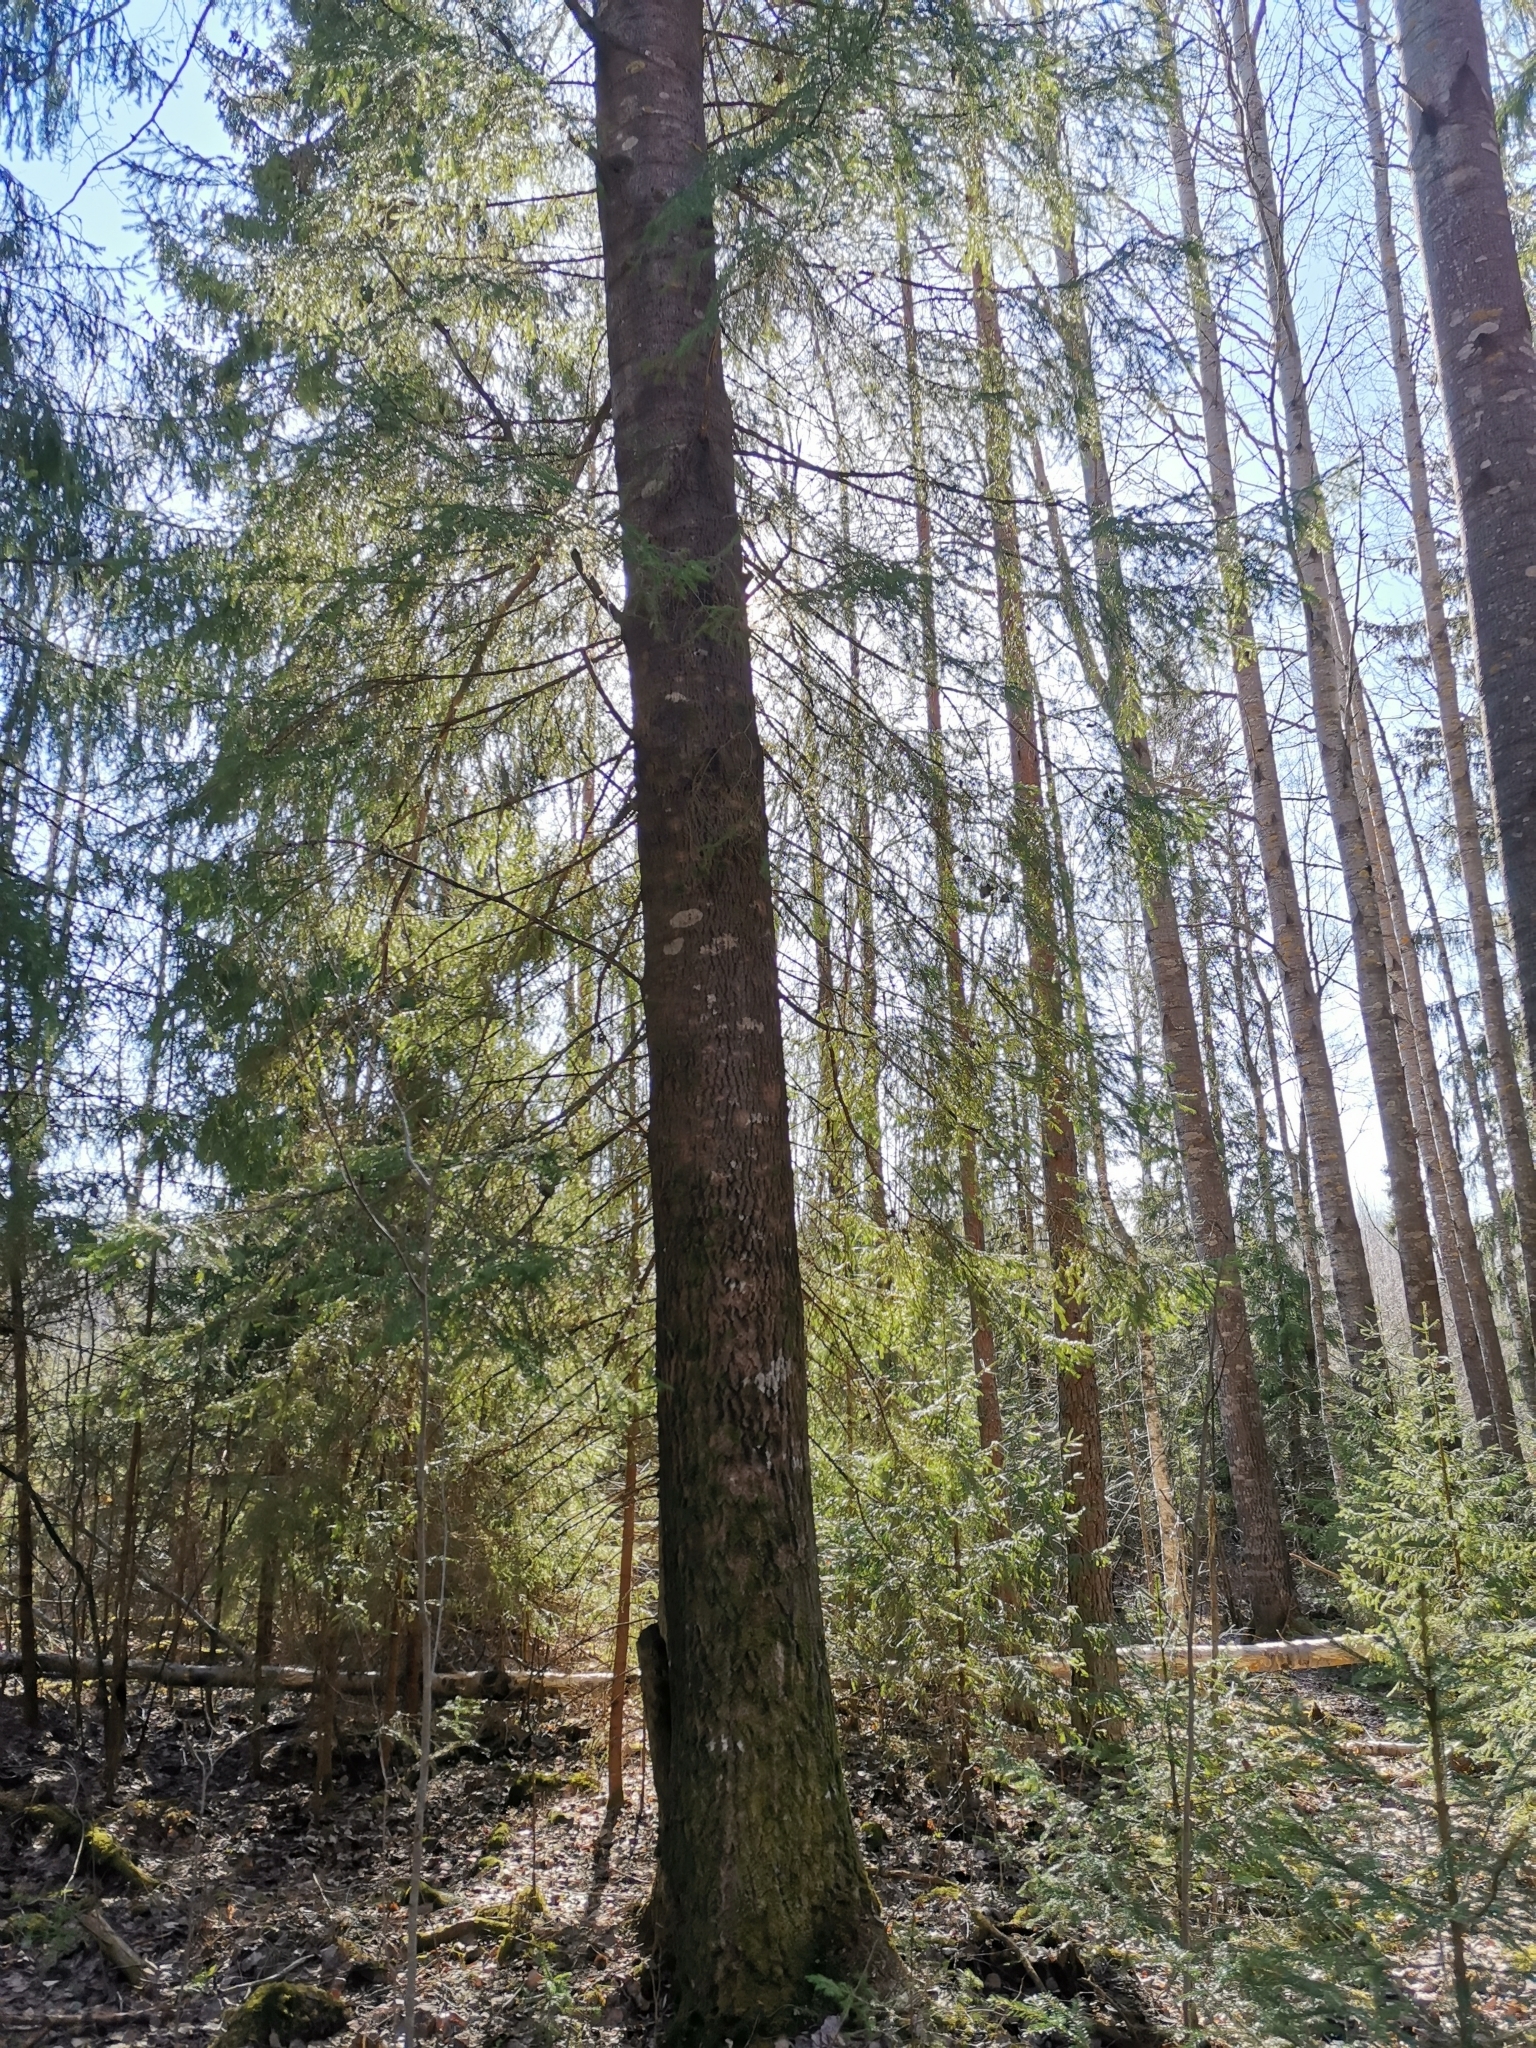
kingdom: Animalia
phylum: Chordata
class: Mammalia
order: Rodentia
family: Sciuridae
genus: Pteromys
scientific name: Pteromys volans
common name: Siberian flying squirrel
